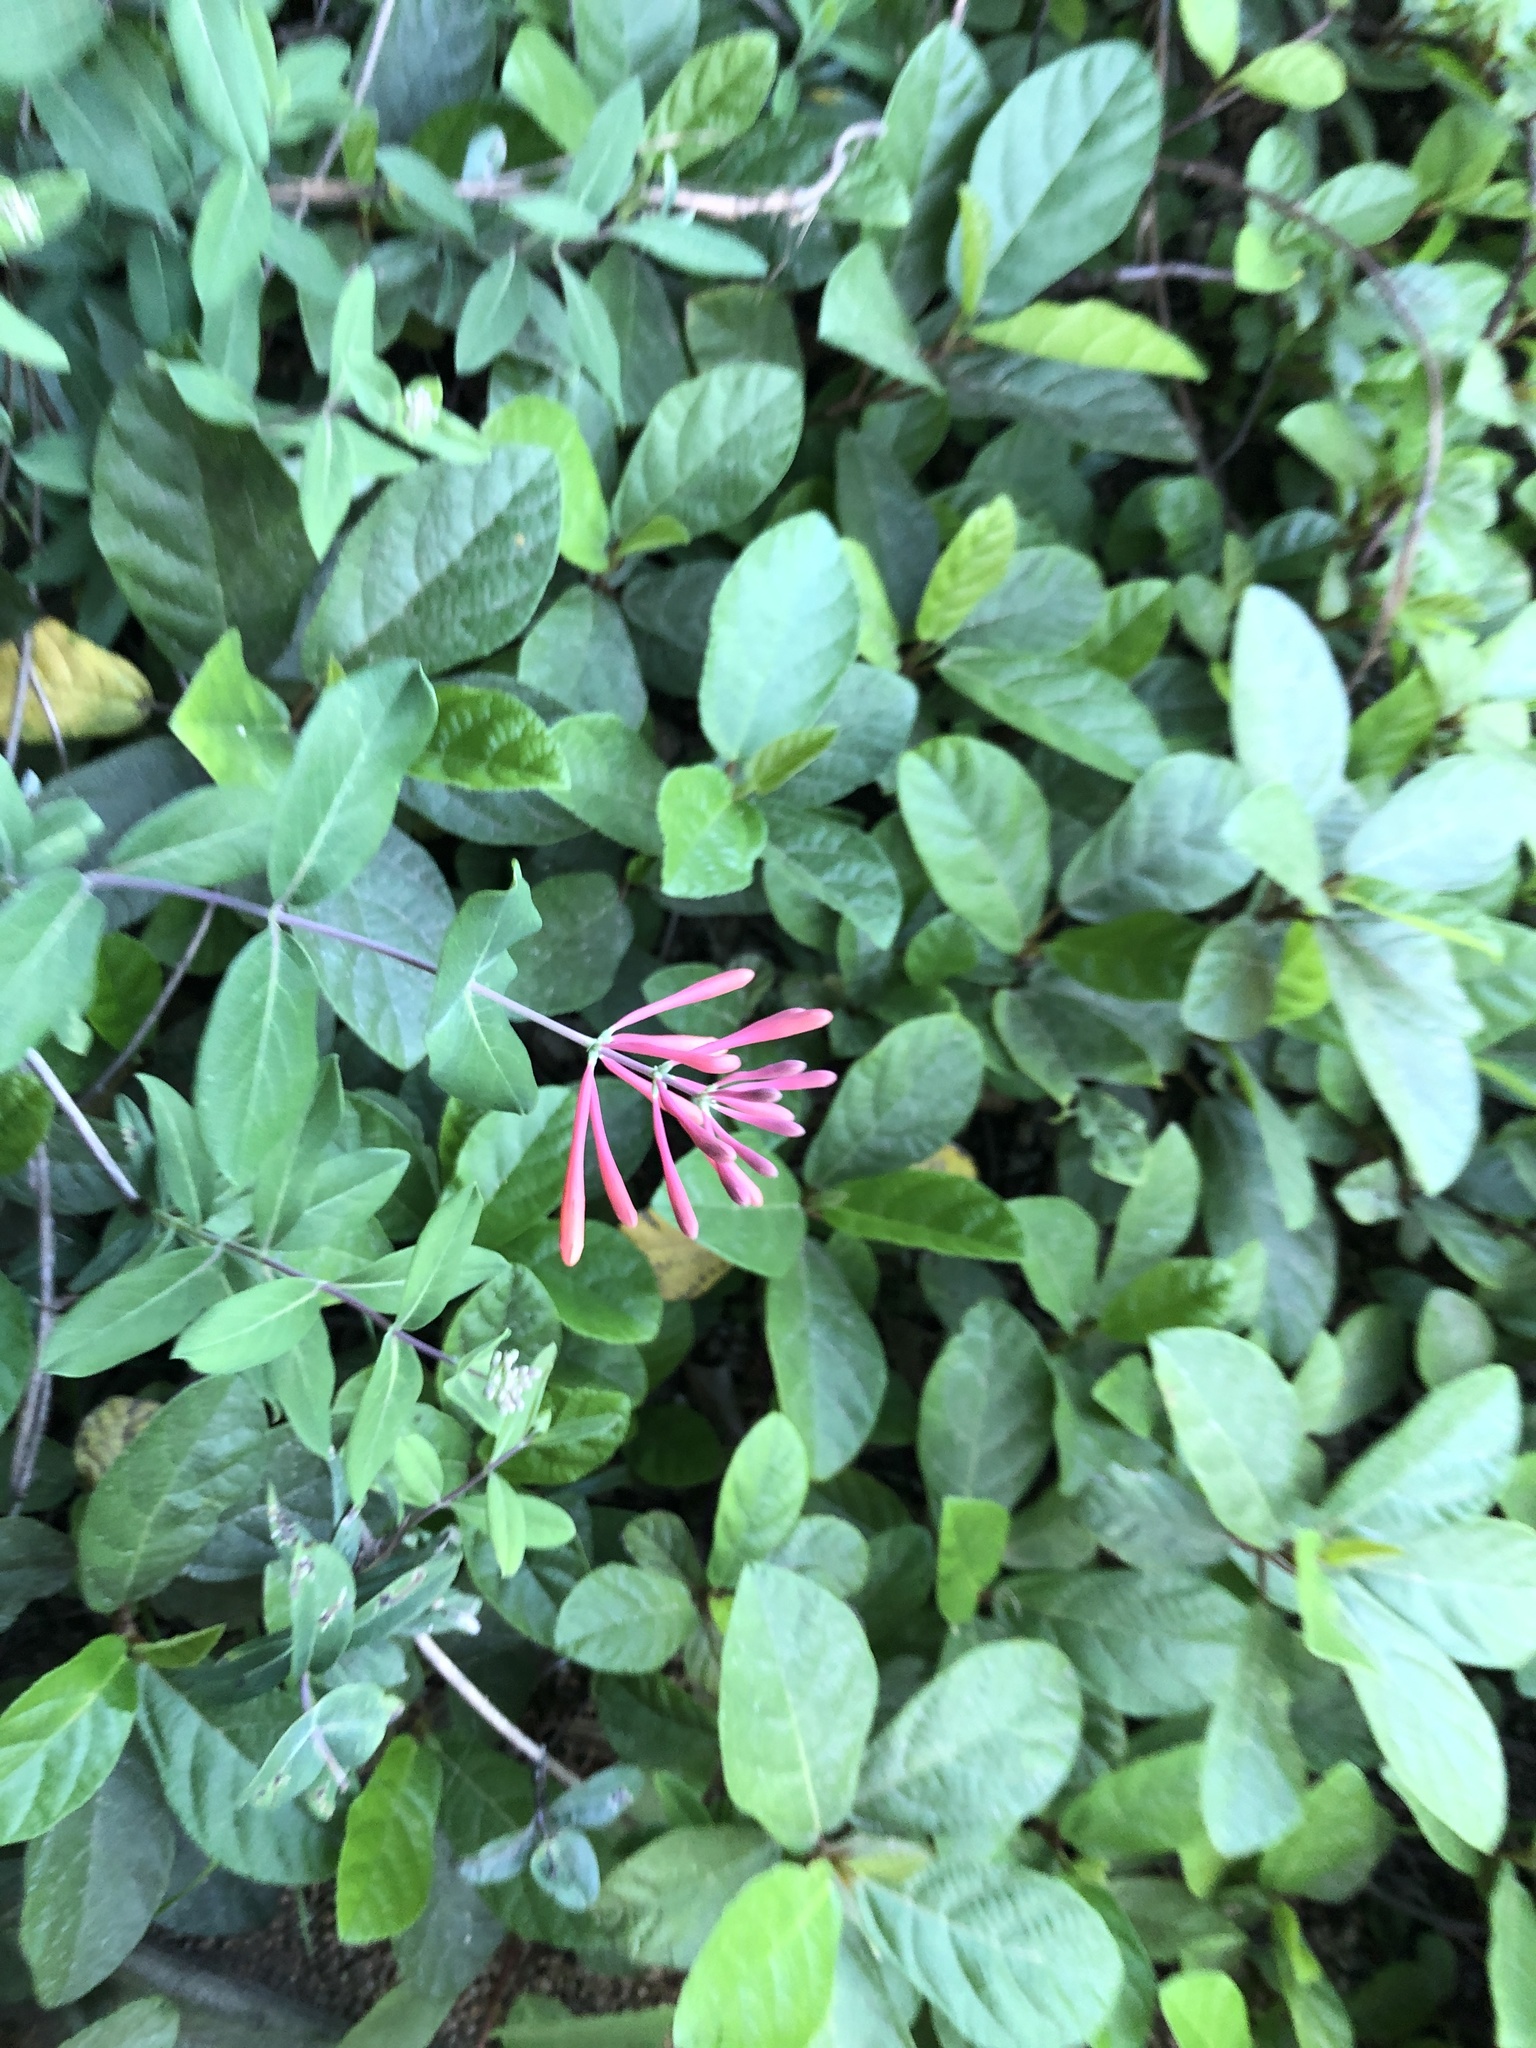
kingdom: Plantae
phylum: Tracheophyta
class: Magnoliopsida
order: Dipsacales
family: Caprifoliaceae
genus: Lonicera
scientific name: Lonicera sempervirens
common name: Coral honeysuckle
